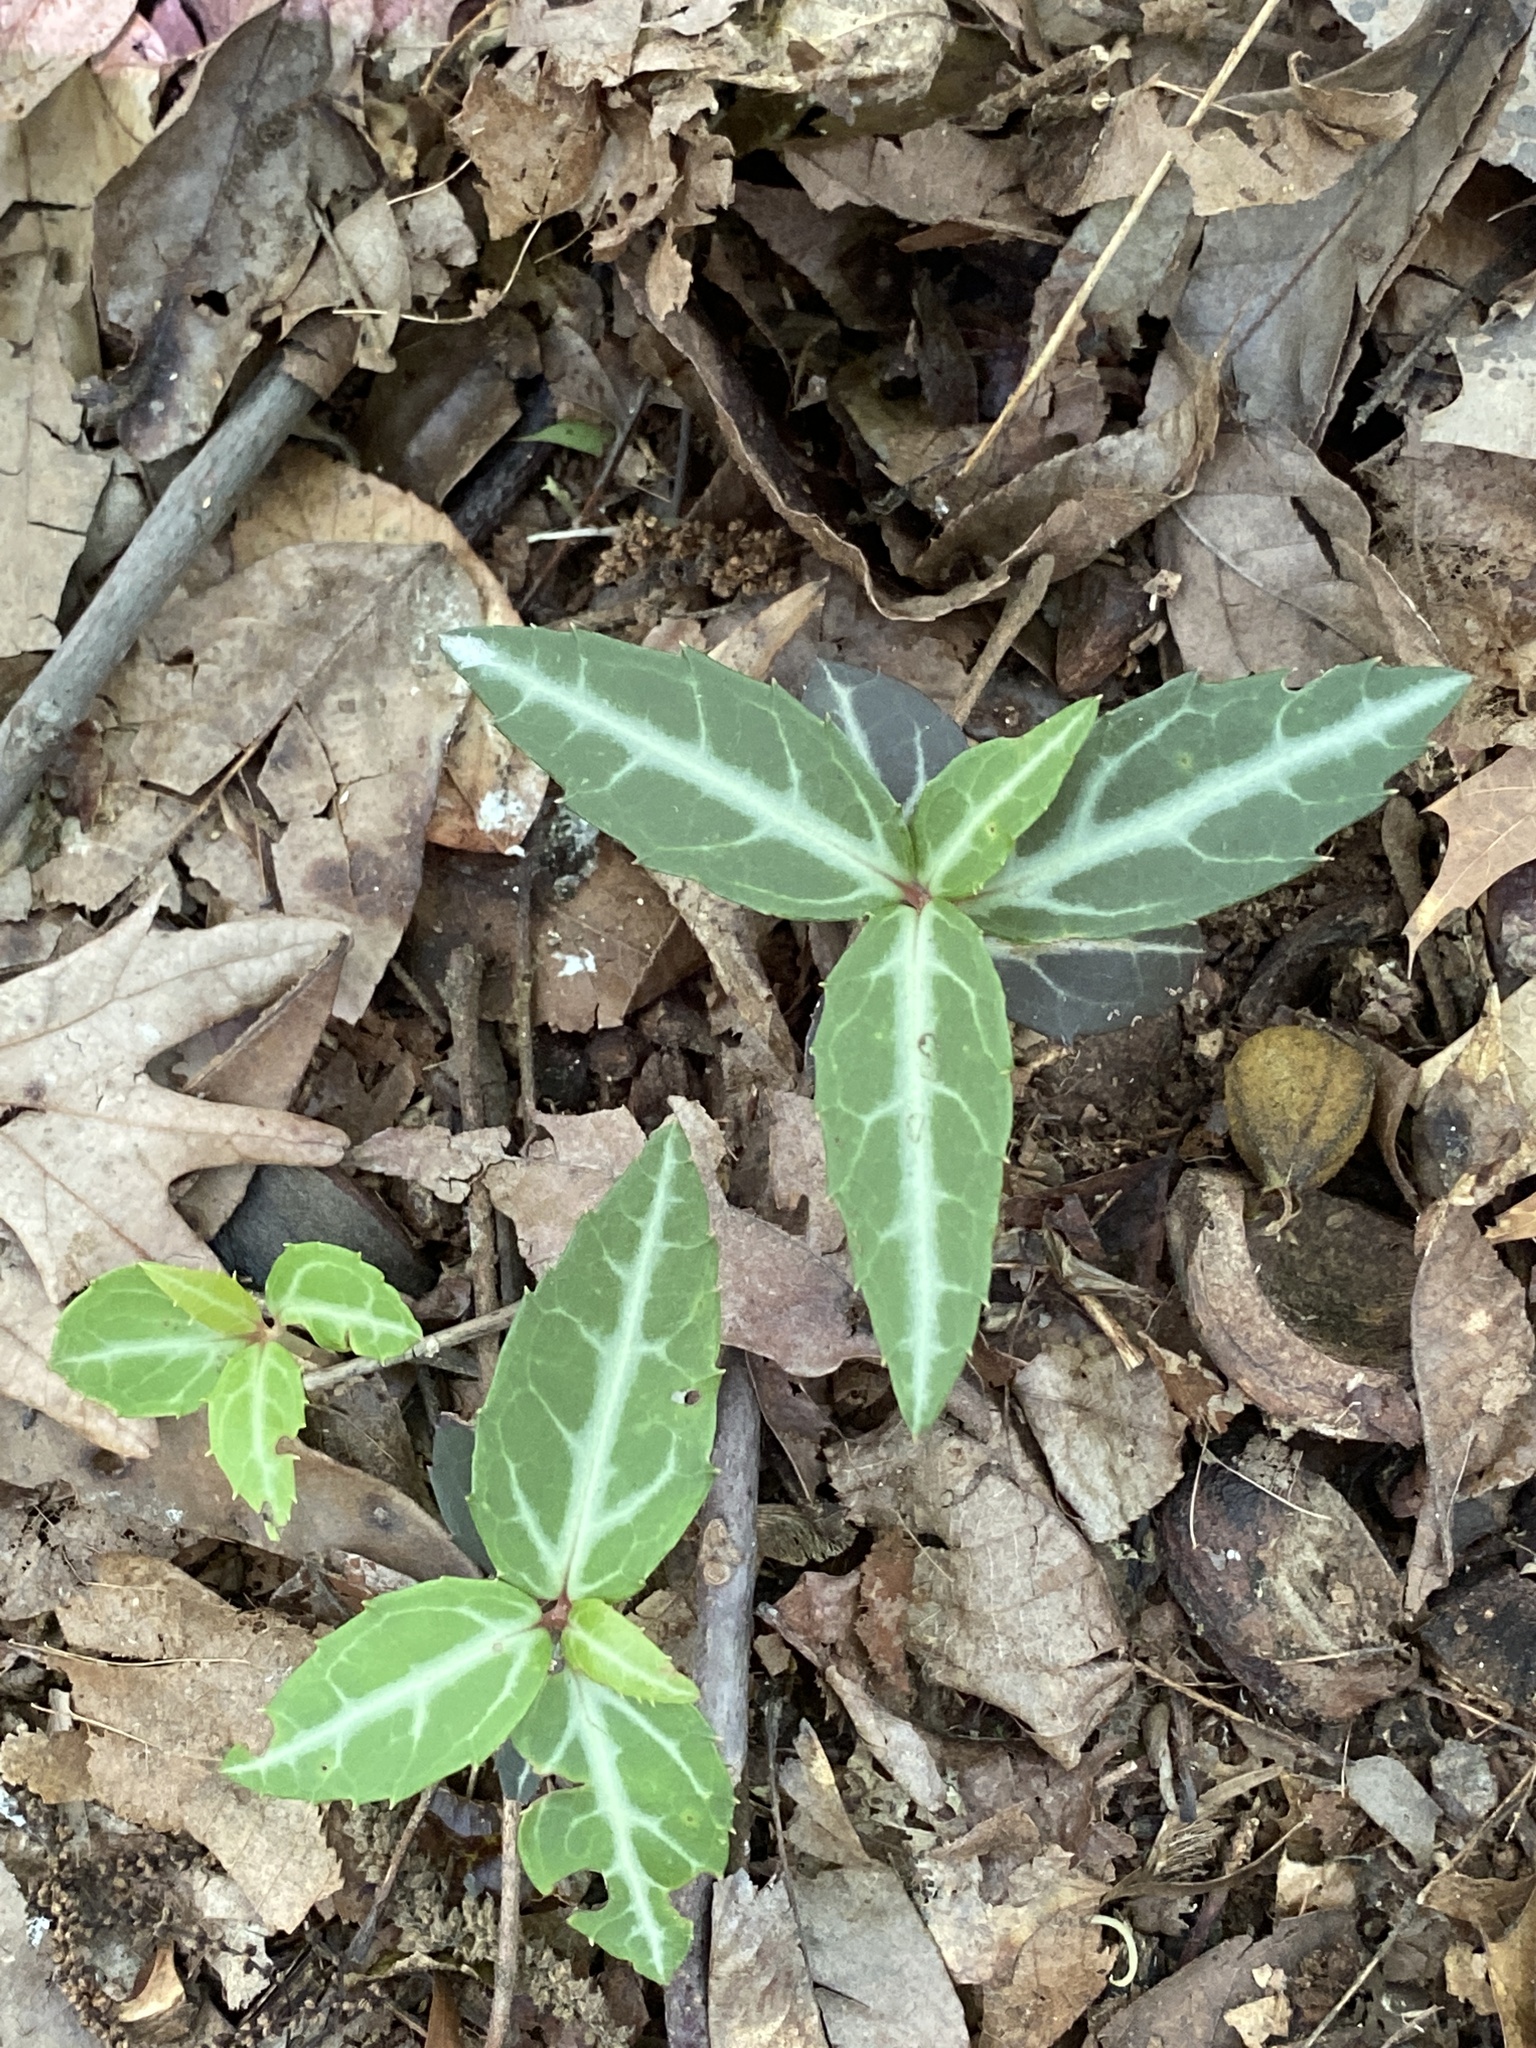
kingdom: Plantae
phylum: Tracheophyta
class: Magnoliopsida
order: Ericales
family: Ericaceae
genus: Chimaphila
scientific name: Chimaphila maculata
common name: Spotted pipsissewa
